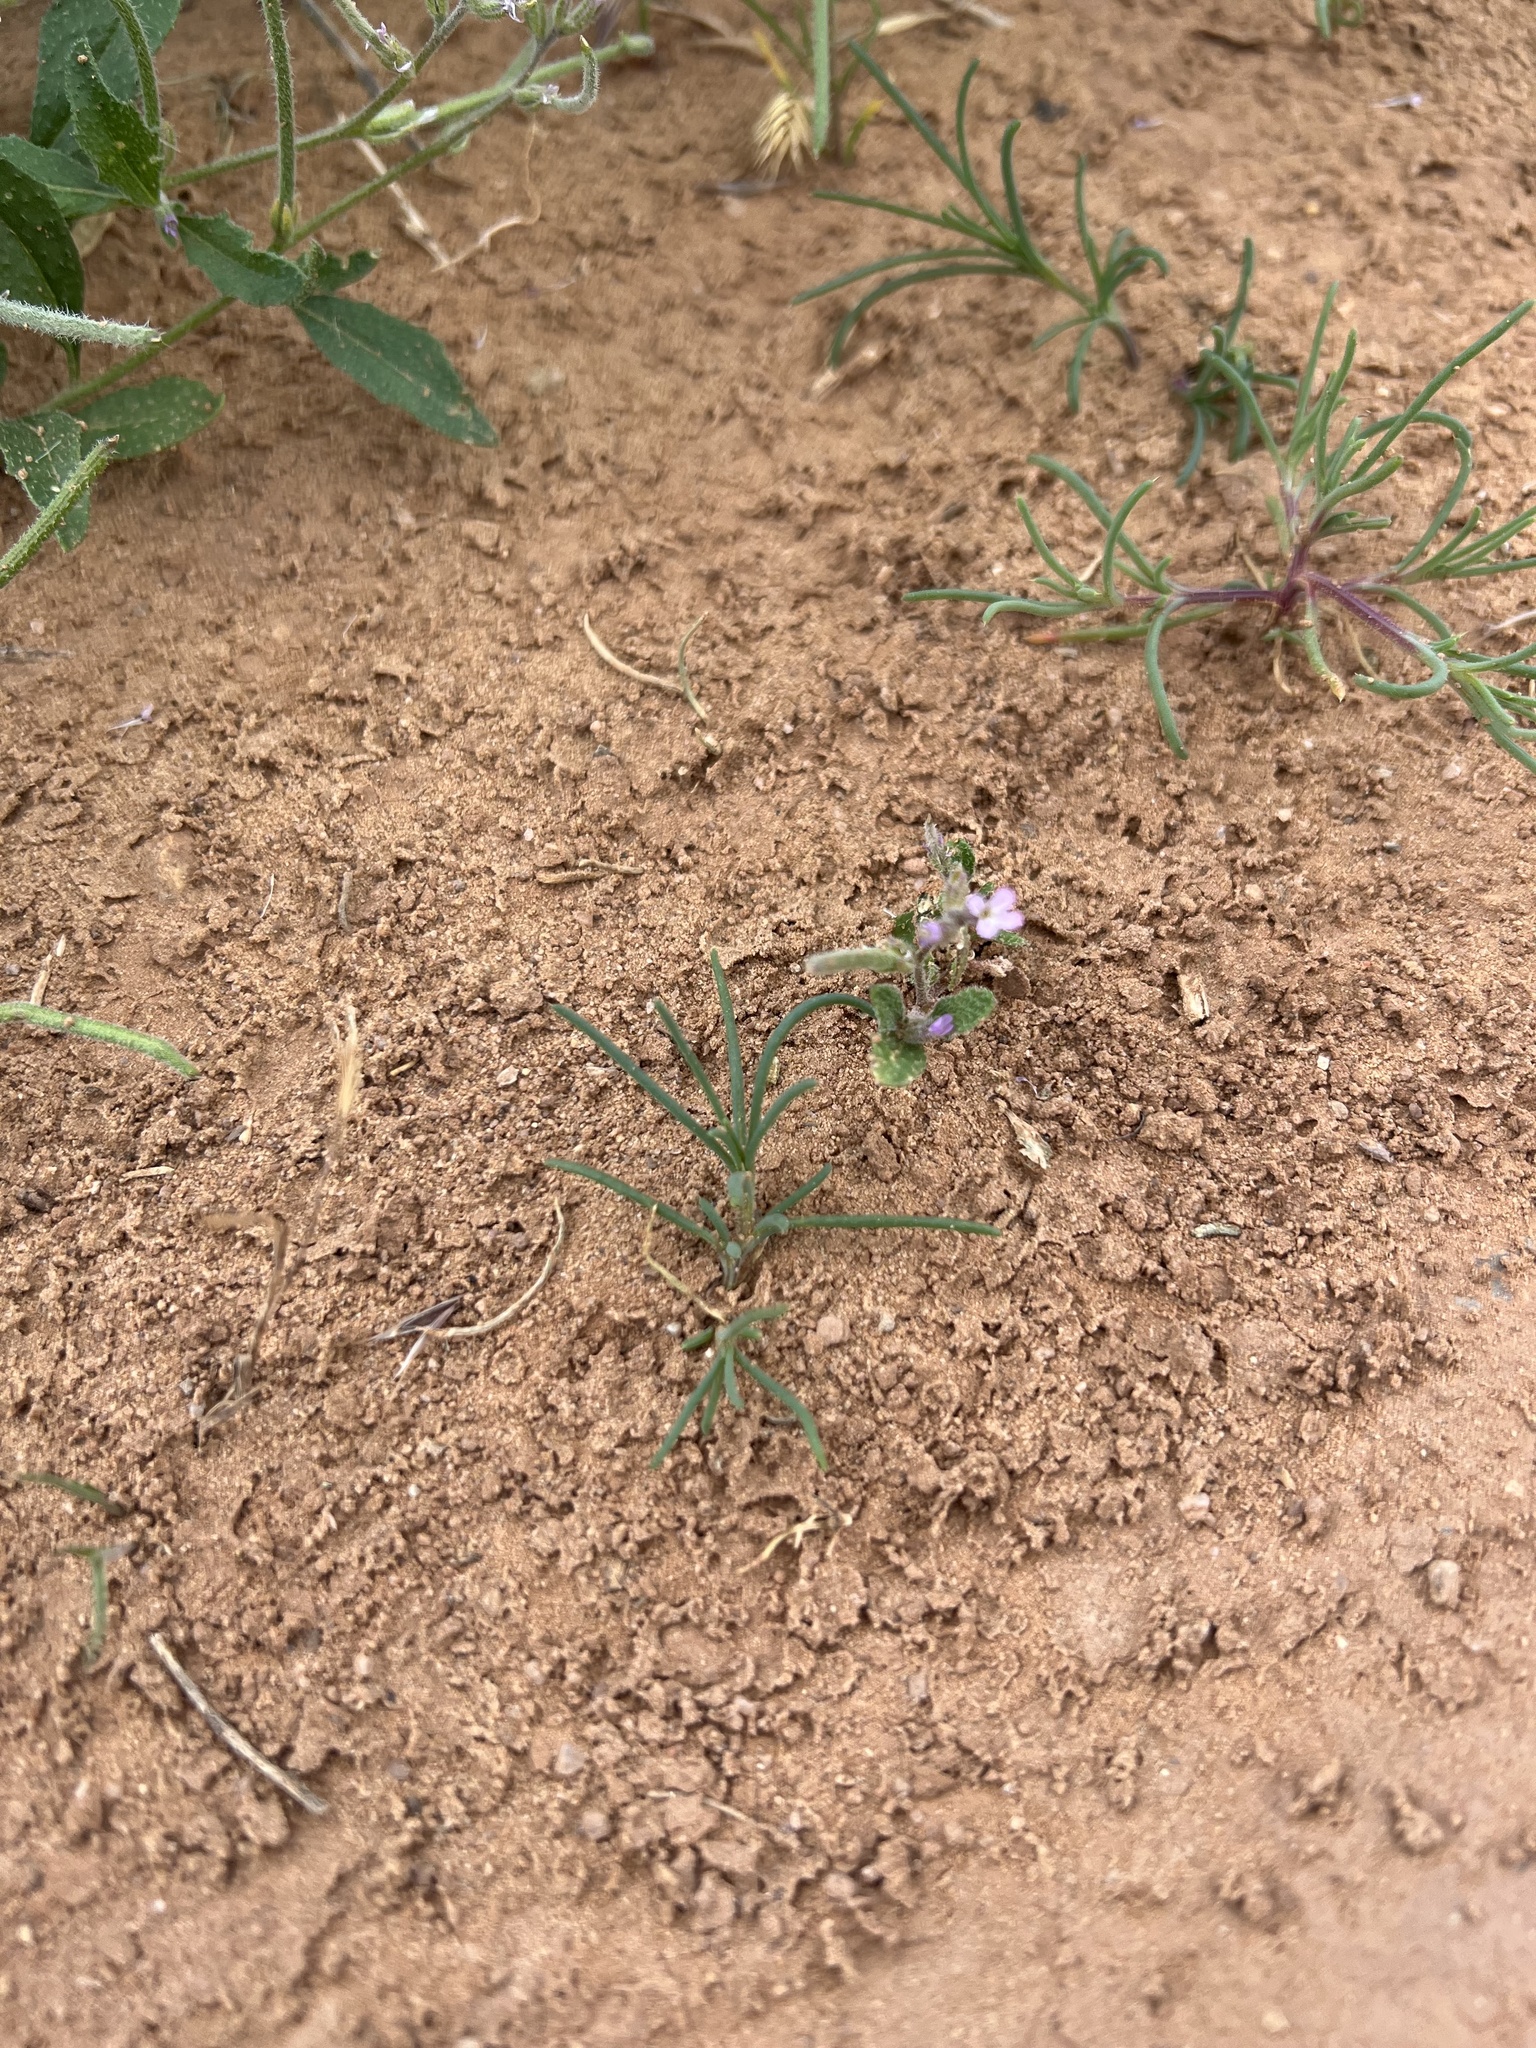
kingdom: Plantae
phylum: Tracheophyta
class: Magnoliopsida
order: Brassicales
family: Brassicaceae
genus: Strigosella
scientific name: Strigosella africana
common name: African mustard
